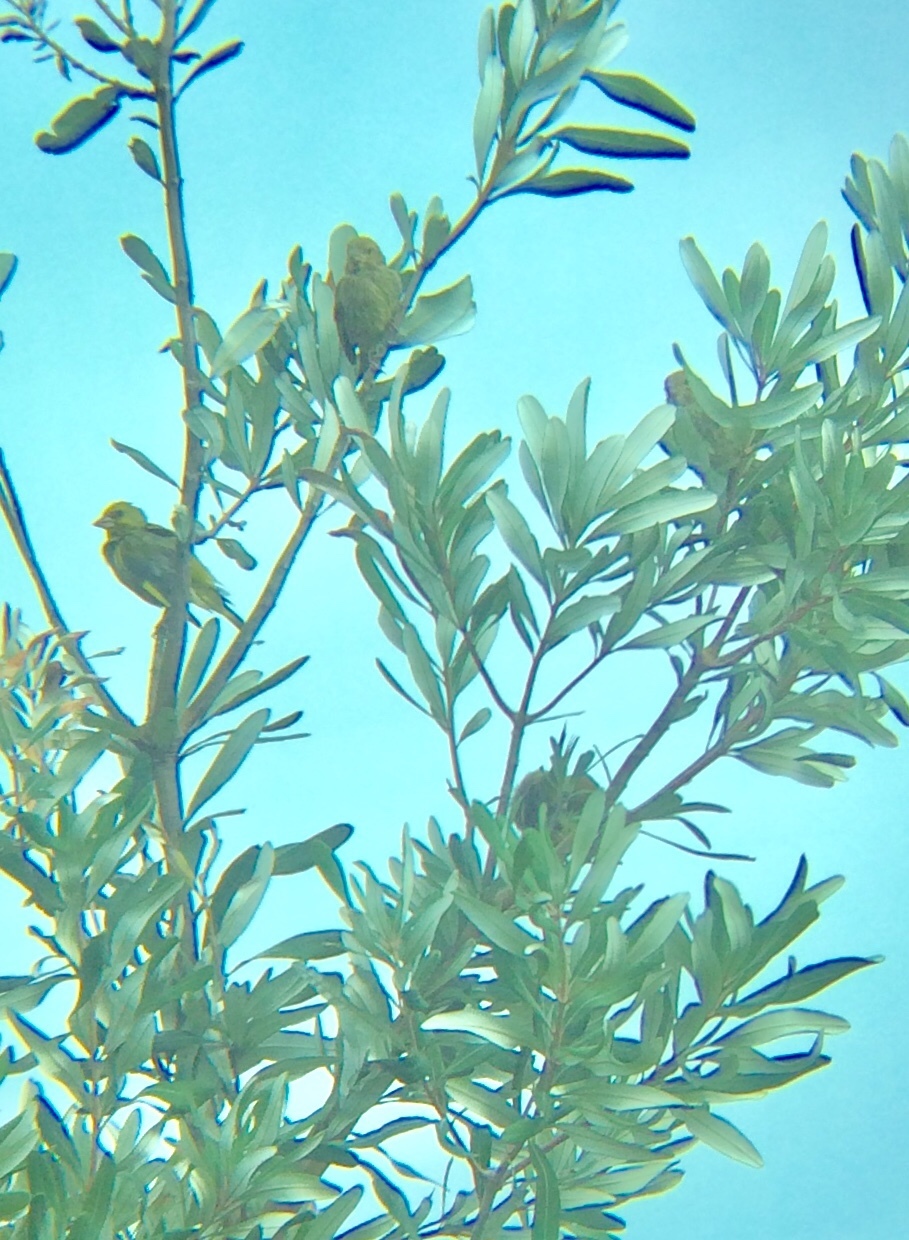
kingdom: Plantae
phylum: Tracheophyta
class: Liliopsida
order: Poales
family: Poaceae
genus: Chloris
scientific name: Chloris chloris
